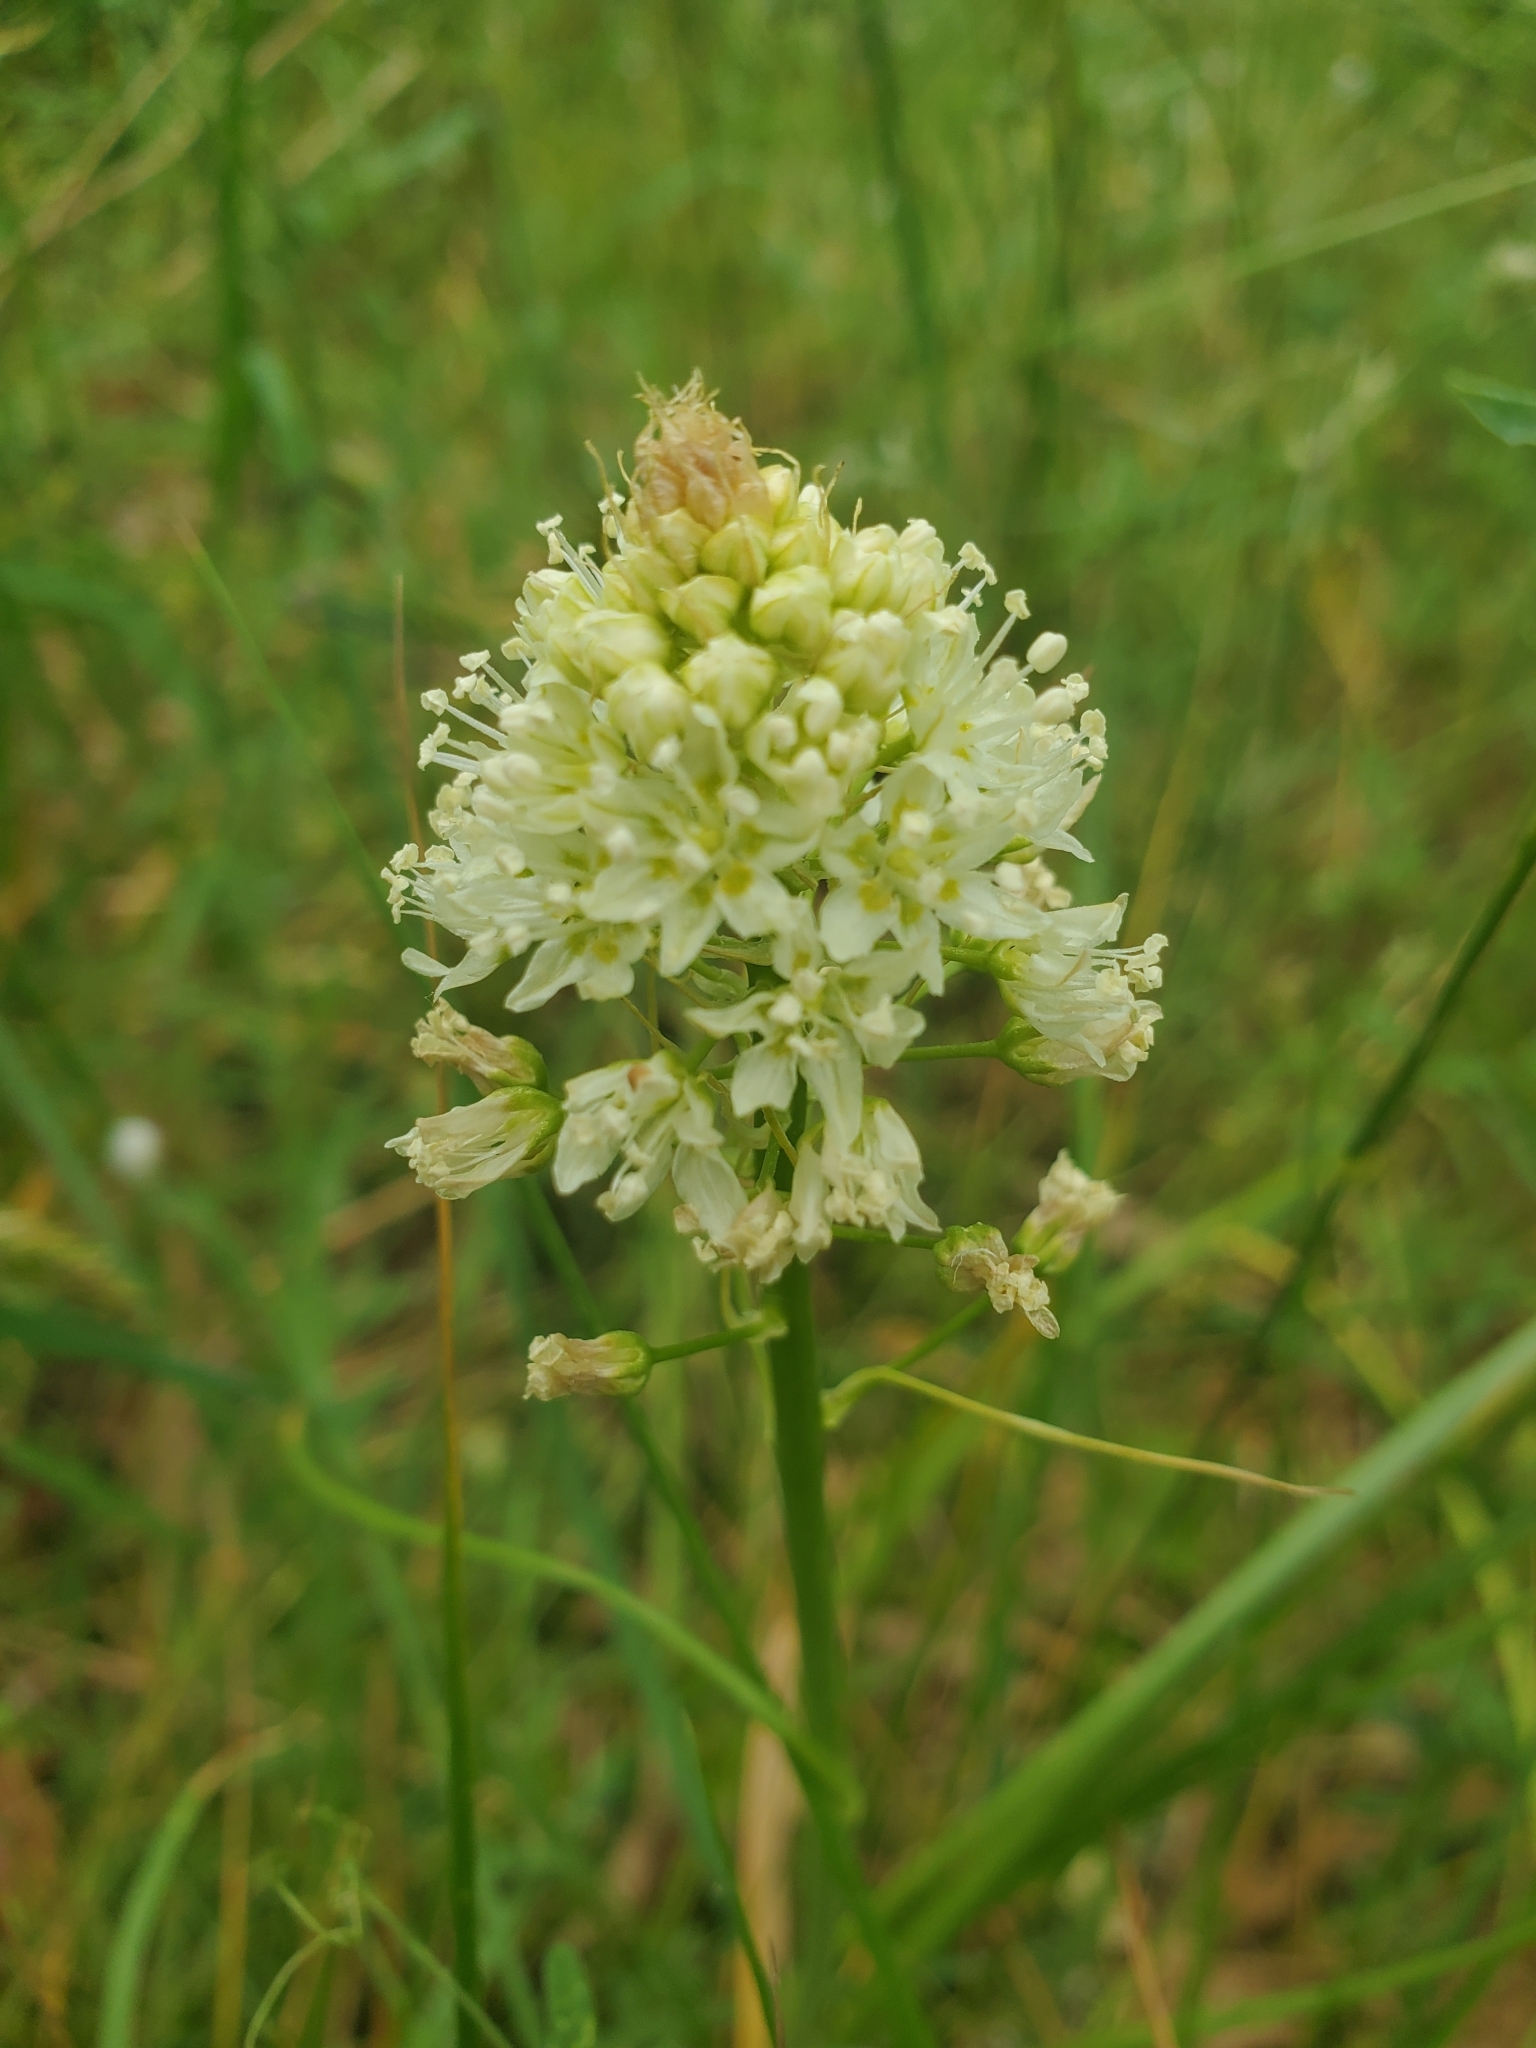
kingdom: Plantae
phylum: Tracheophyta
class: Liliopsida
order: Liliales
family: Melanthiaceae
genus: Toxicoscordion
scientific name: Toxicoscordion venenosum
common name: Meadow death camas
